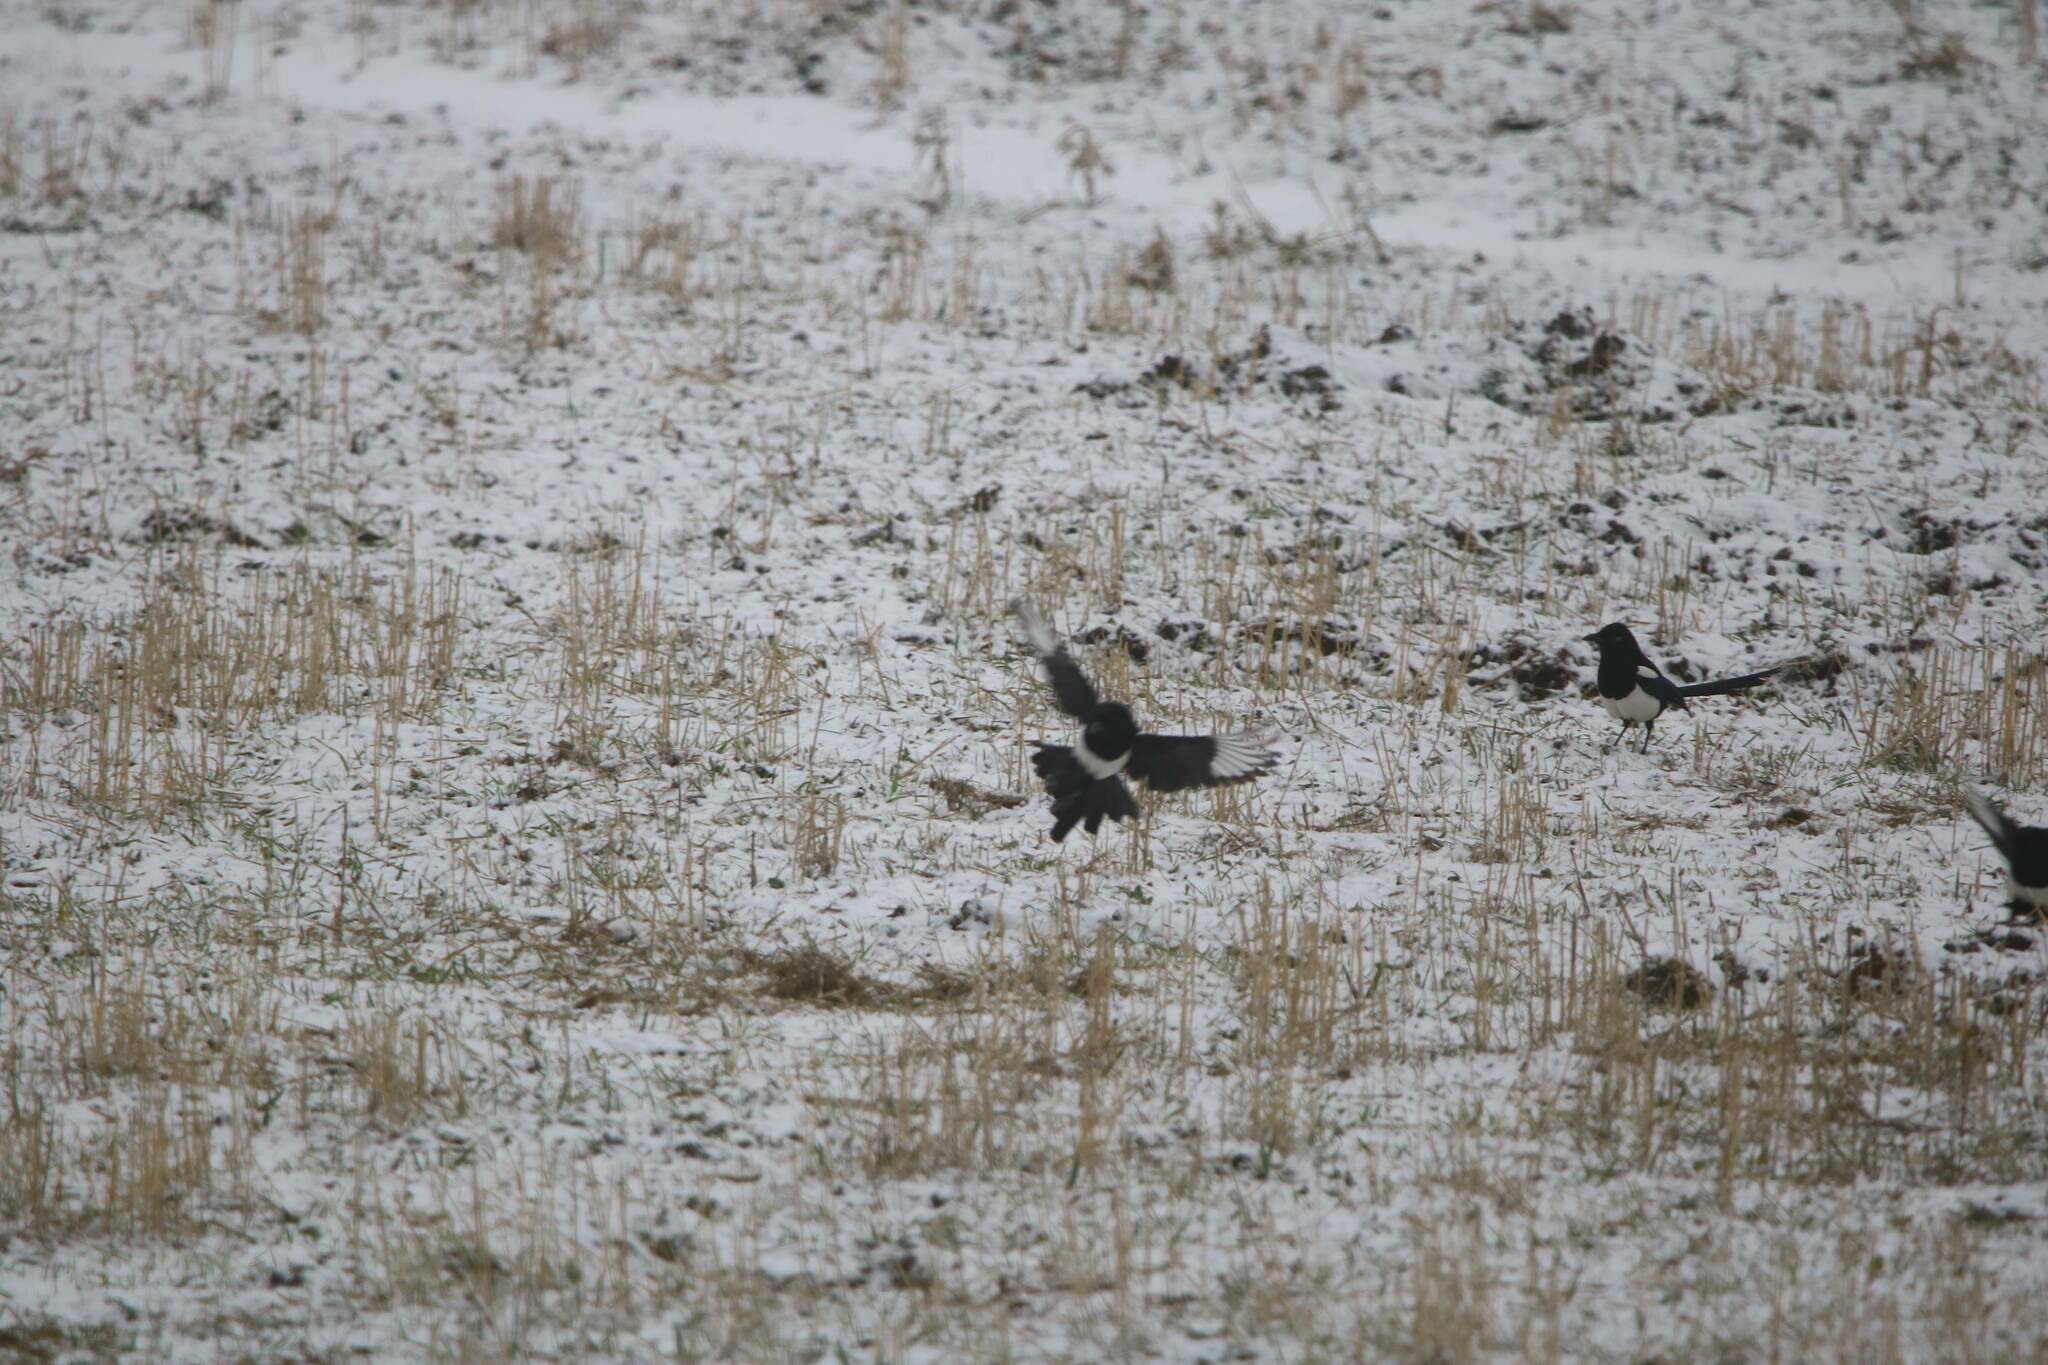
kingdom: Animalia
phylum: Chordata
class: Aves
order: Passeriformes
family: Corvidae
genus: Pica
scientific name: Pica mauritanica
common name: Maghreb magpie
